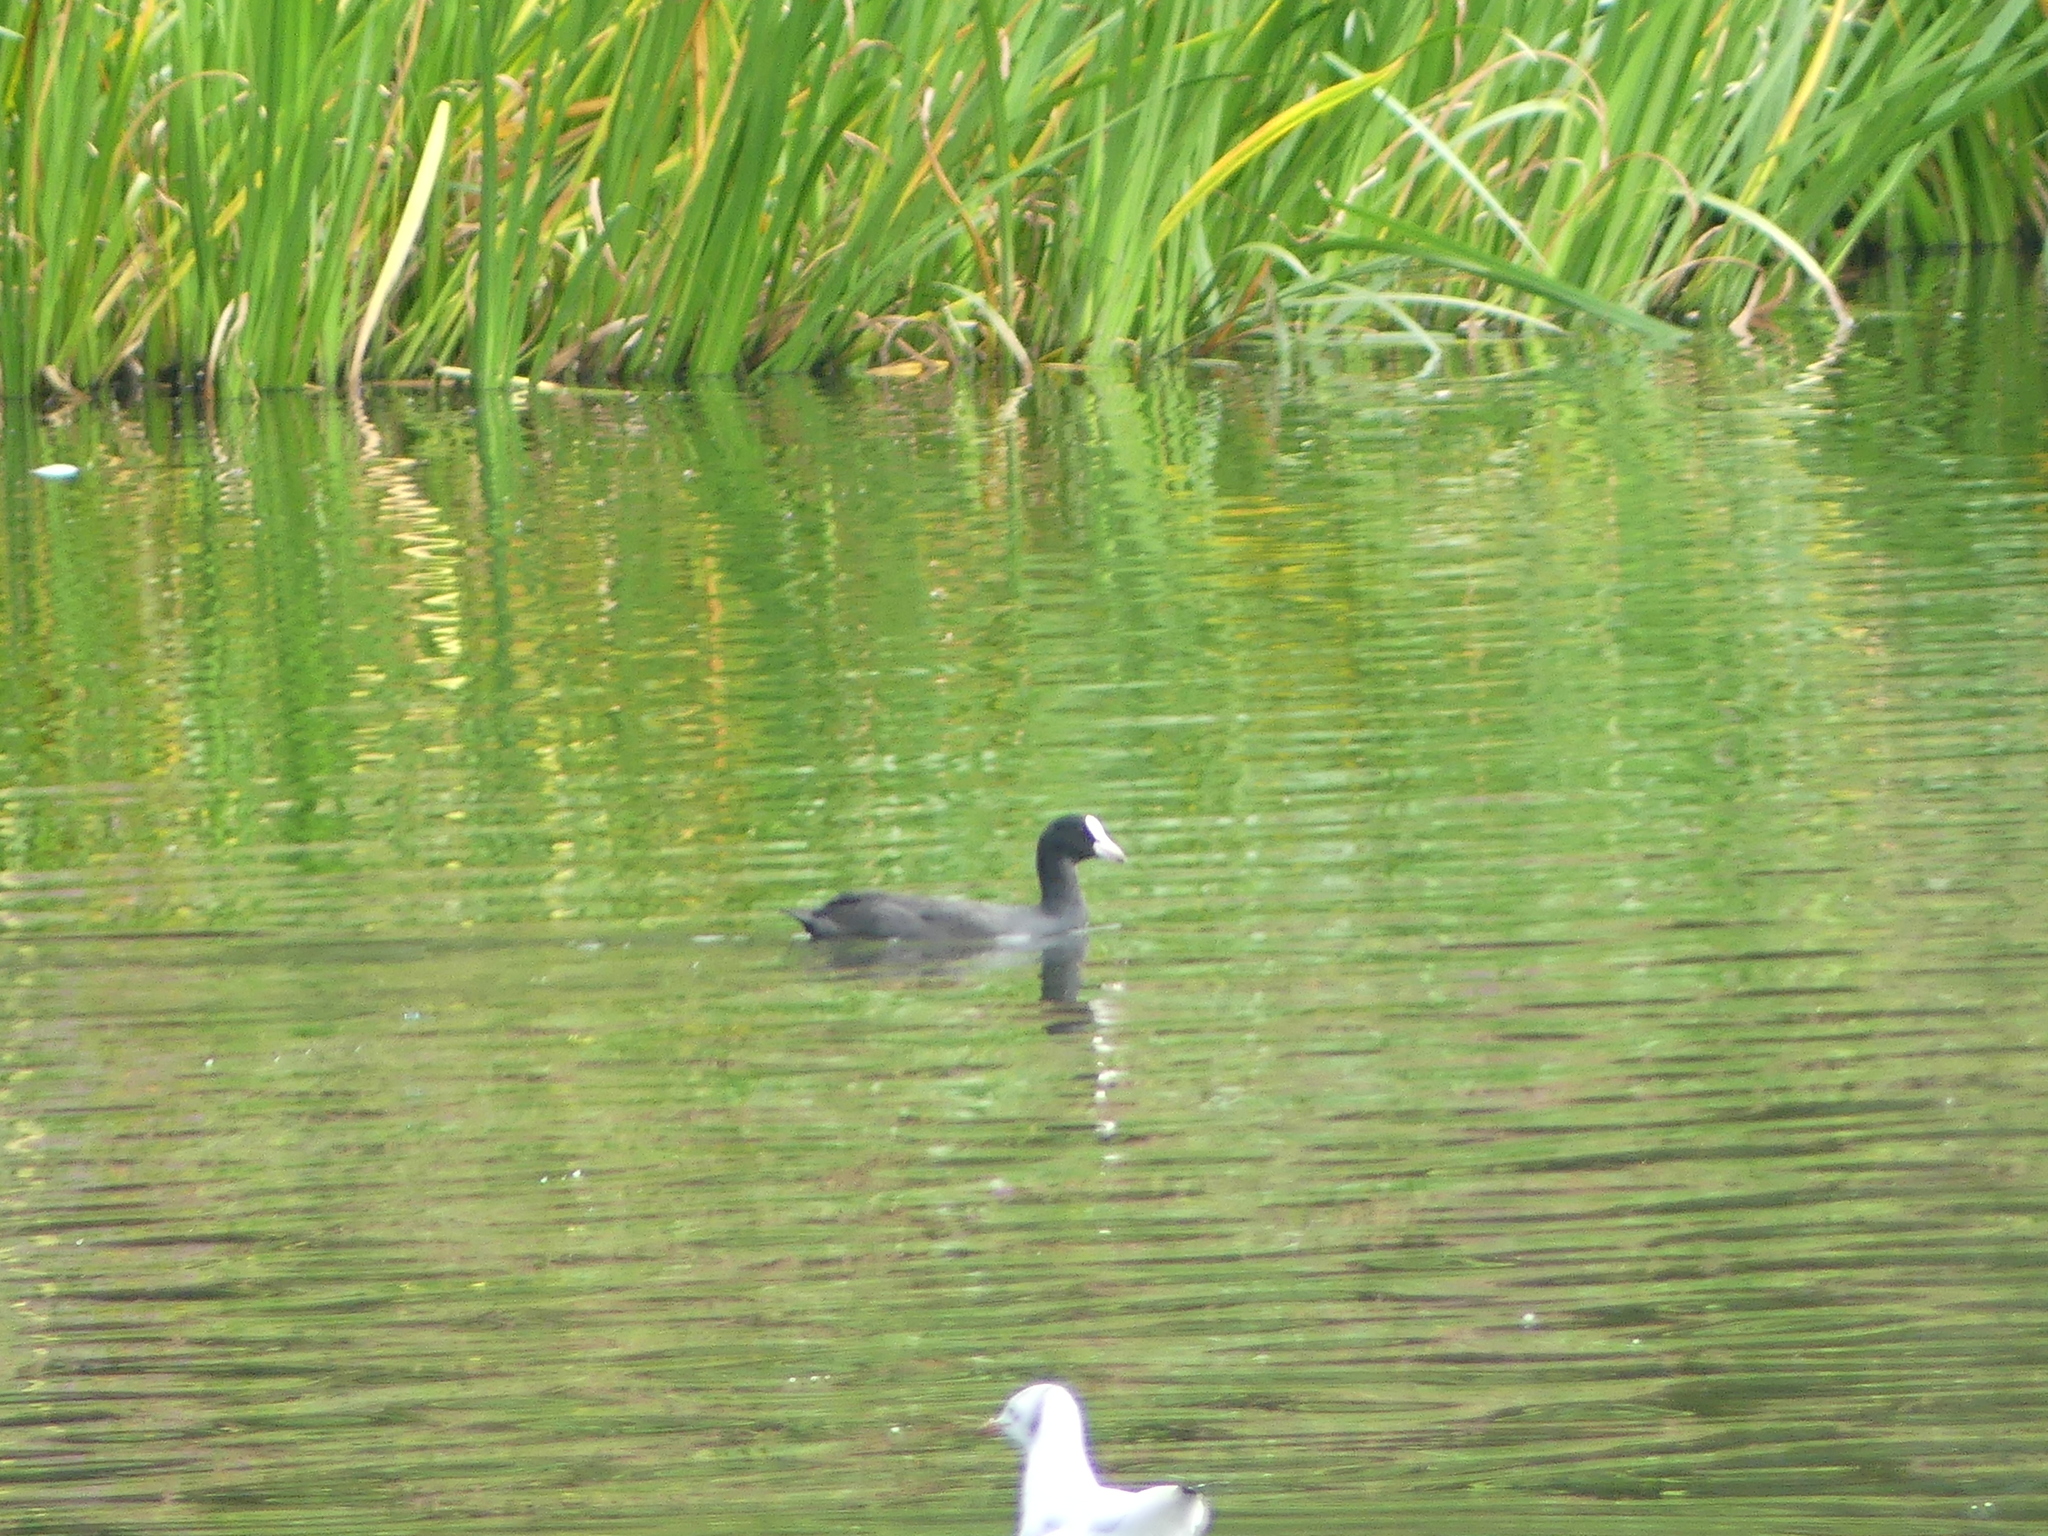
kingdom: Animalia
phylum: Chordata
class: Aves
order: Gruiformes
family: Rallidae
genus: Fulica
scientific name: Fulica atra
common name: Eurasian coot
